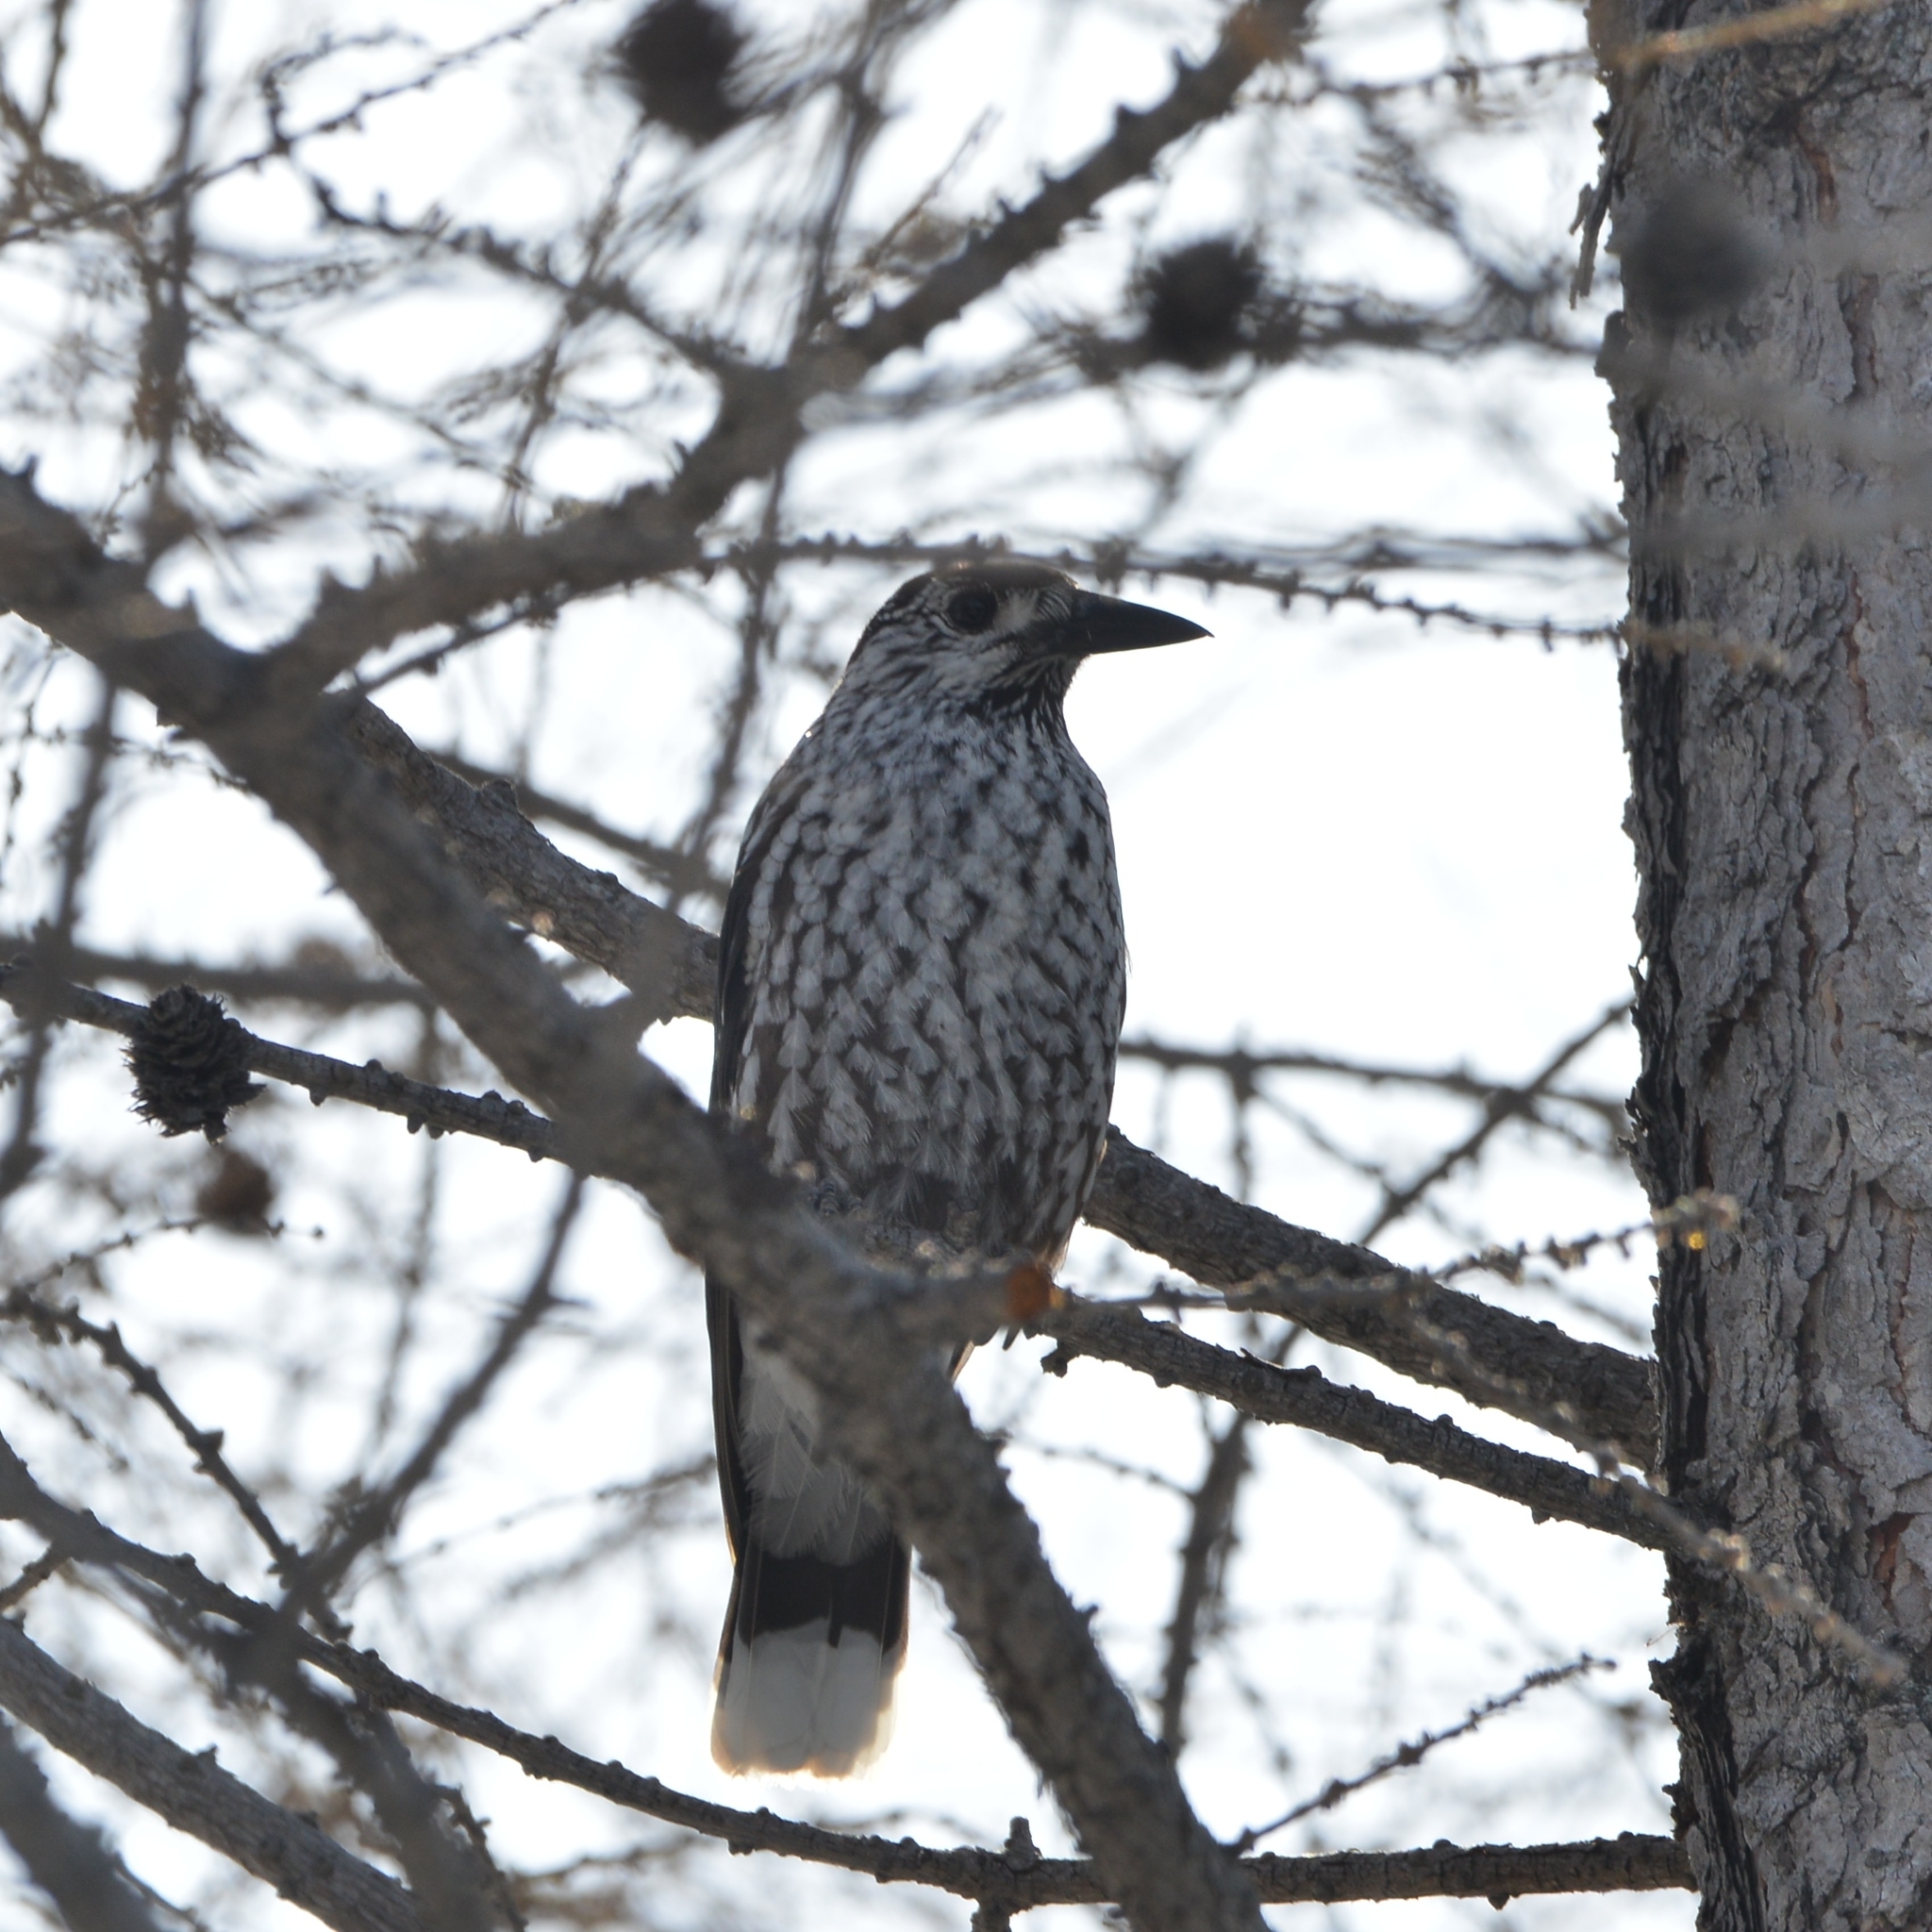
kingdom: Animalia
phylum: Chordata
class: Aves
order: Passeriformes
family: Corvidae
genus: Nucifraga
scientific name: Nucifraga caryocatactes
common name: Spotted nutcracker
